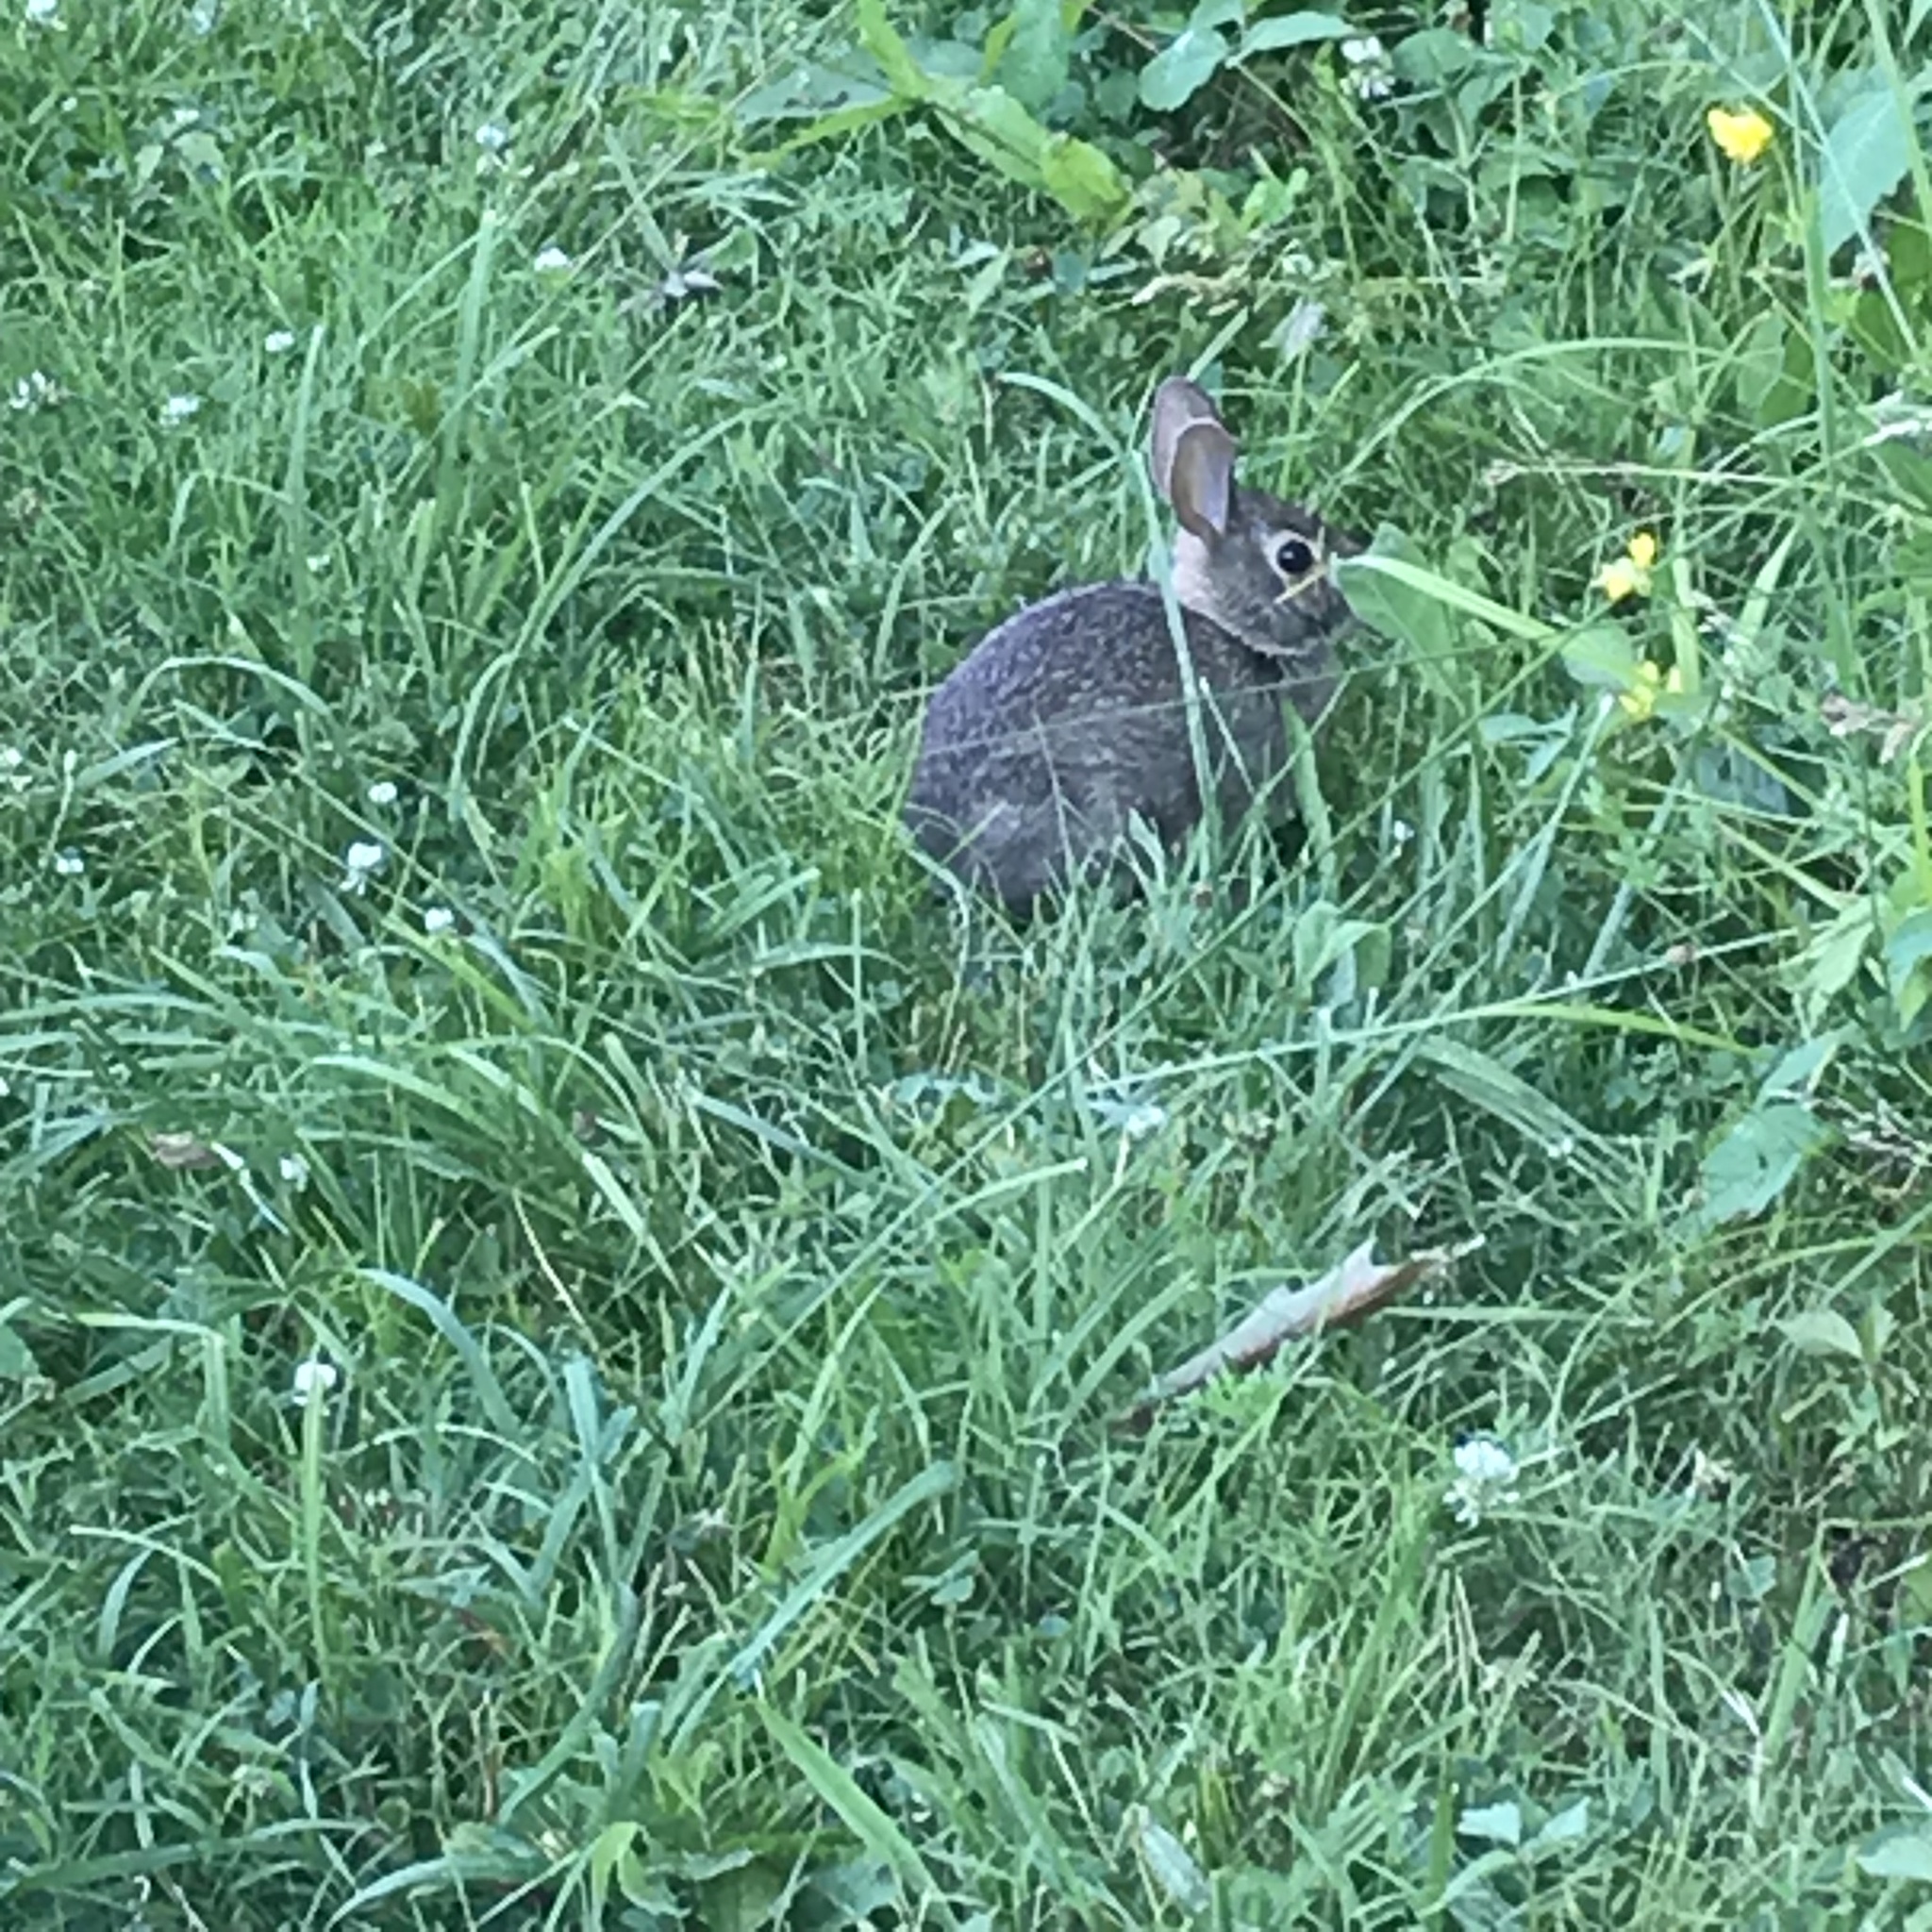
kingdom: Animalia
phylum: Chordata
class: Mammalia
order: Lagomorpha
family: Leporidae
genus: Sylvilagus
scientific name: Sylvilagus floridanus
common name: Eastern cottontail
